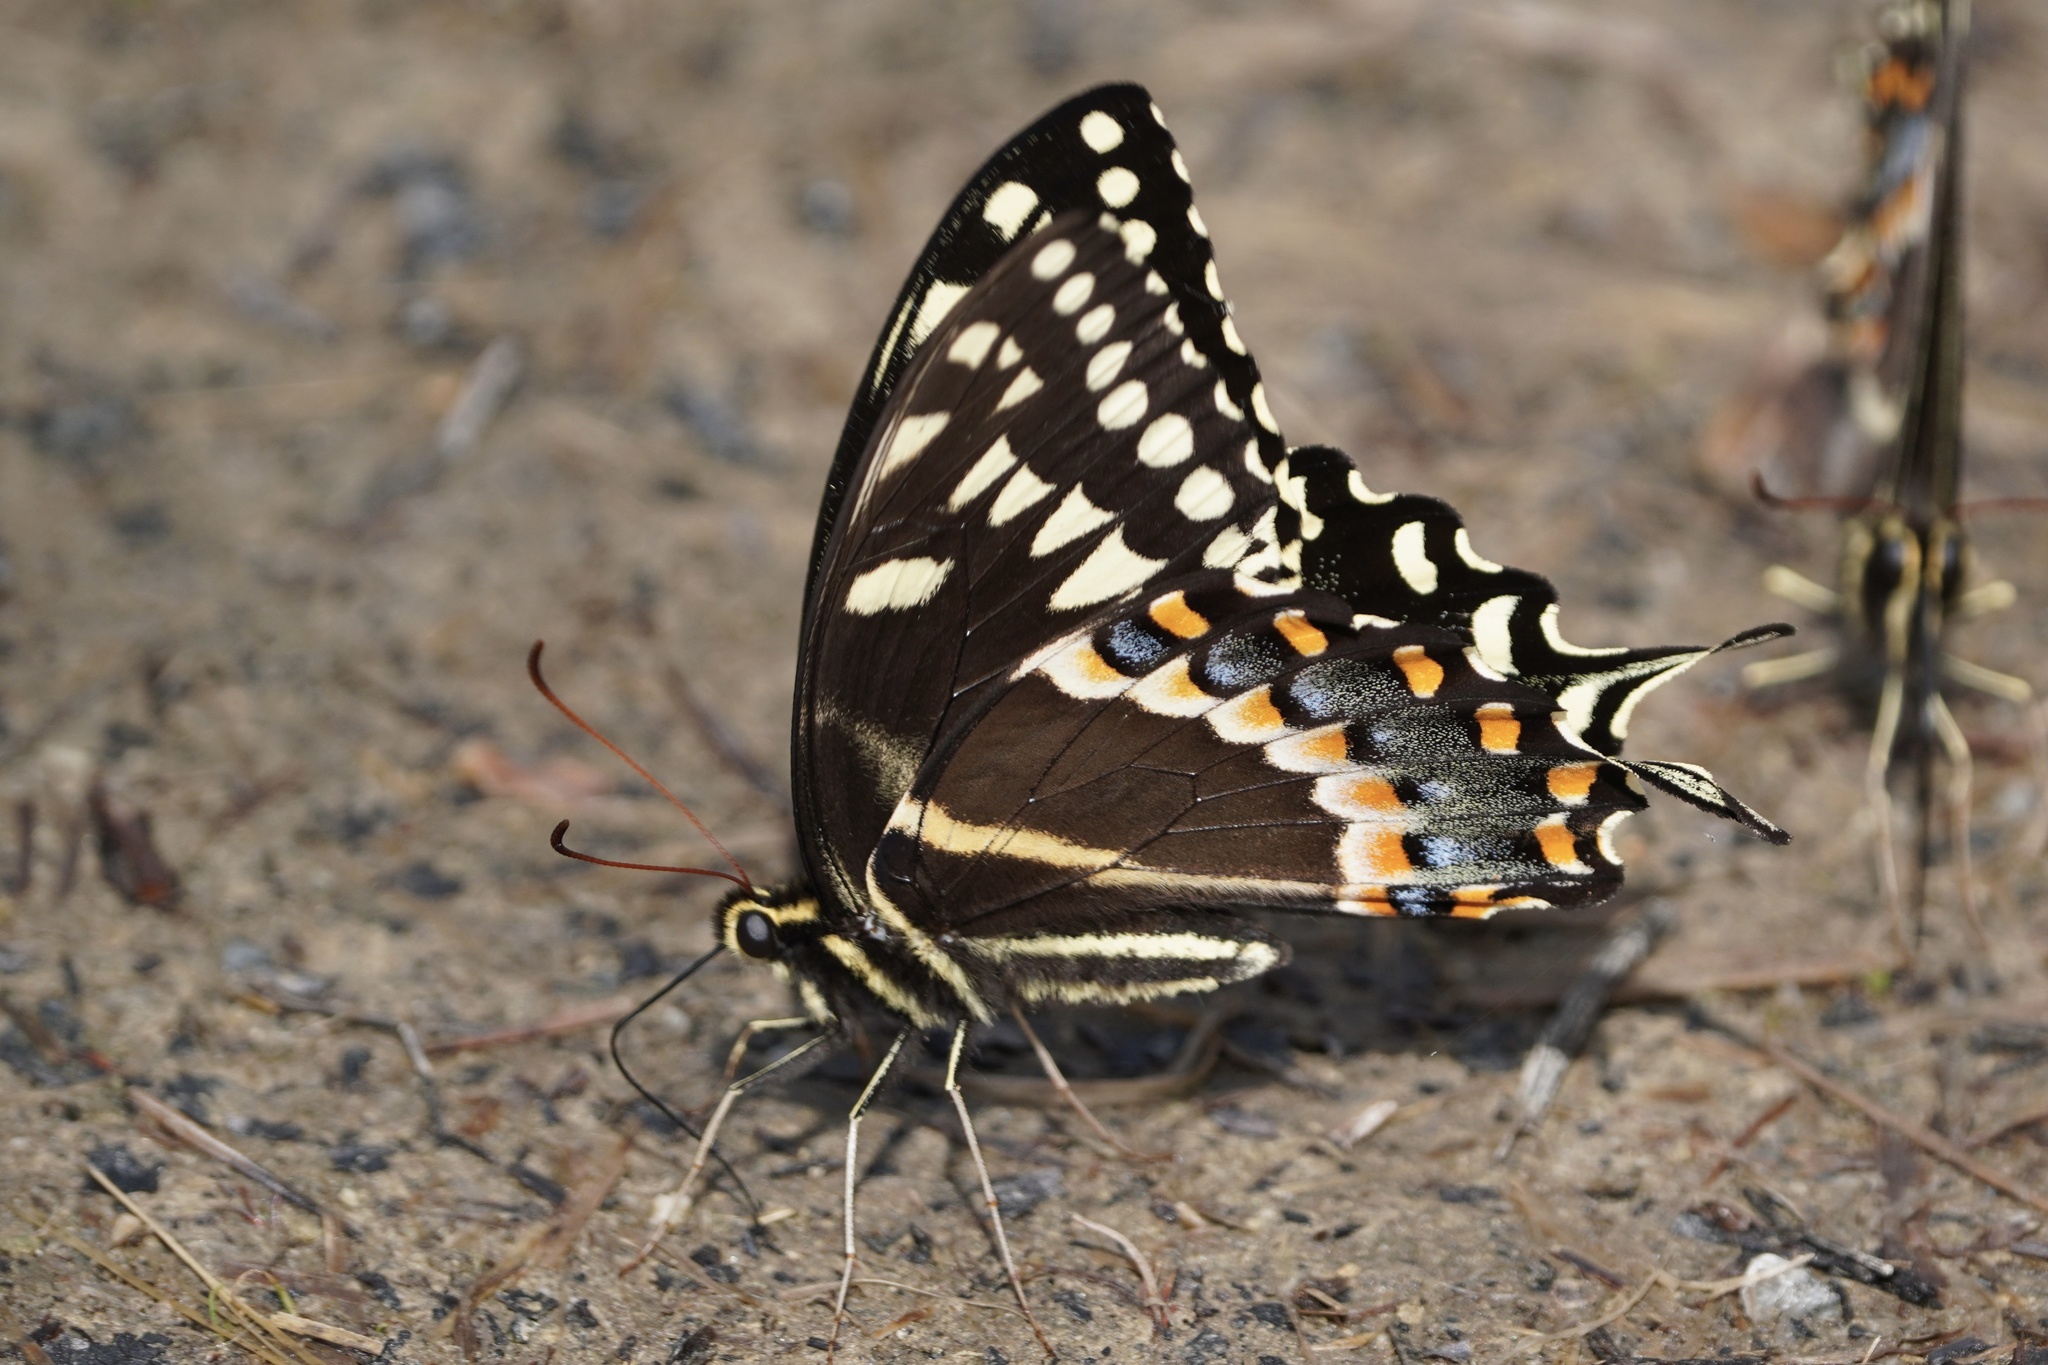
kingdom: Animalia
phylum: Arthropoda
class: Insecta
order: Lepidoptera
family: Papilionidae
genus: Papilio
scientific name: Papilio palamedes
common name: Palamedes swallowtail
